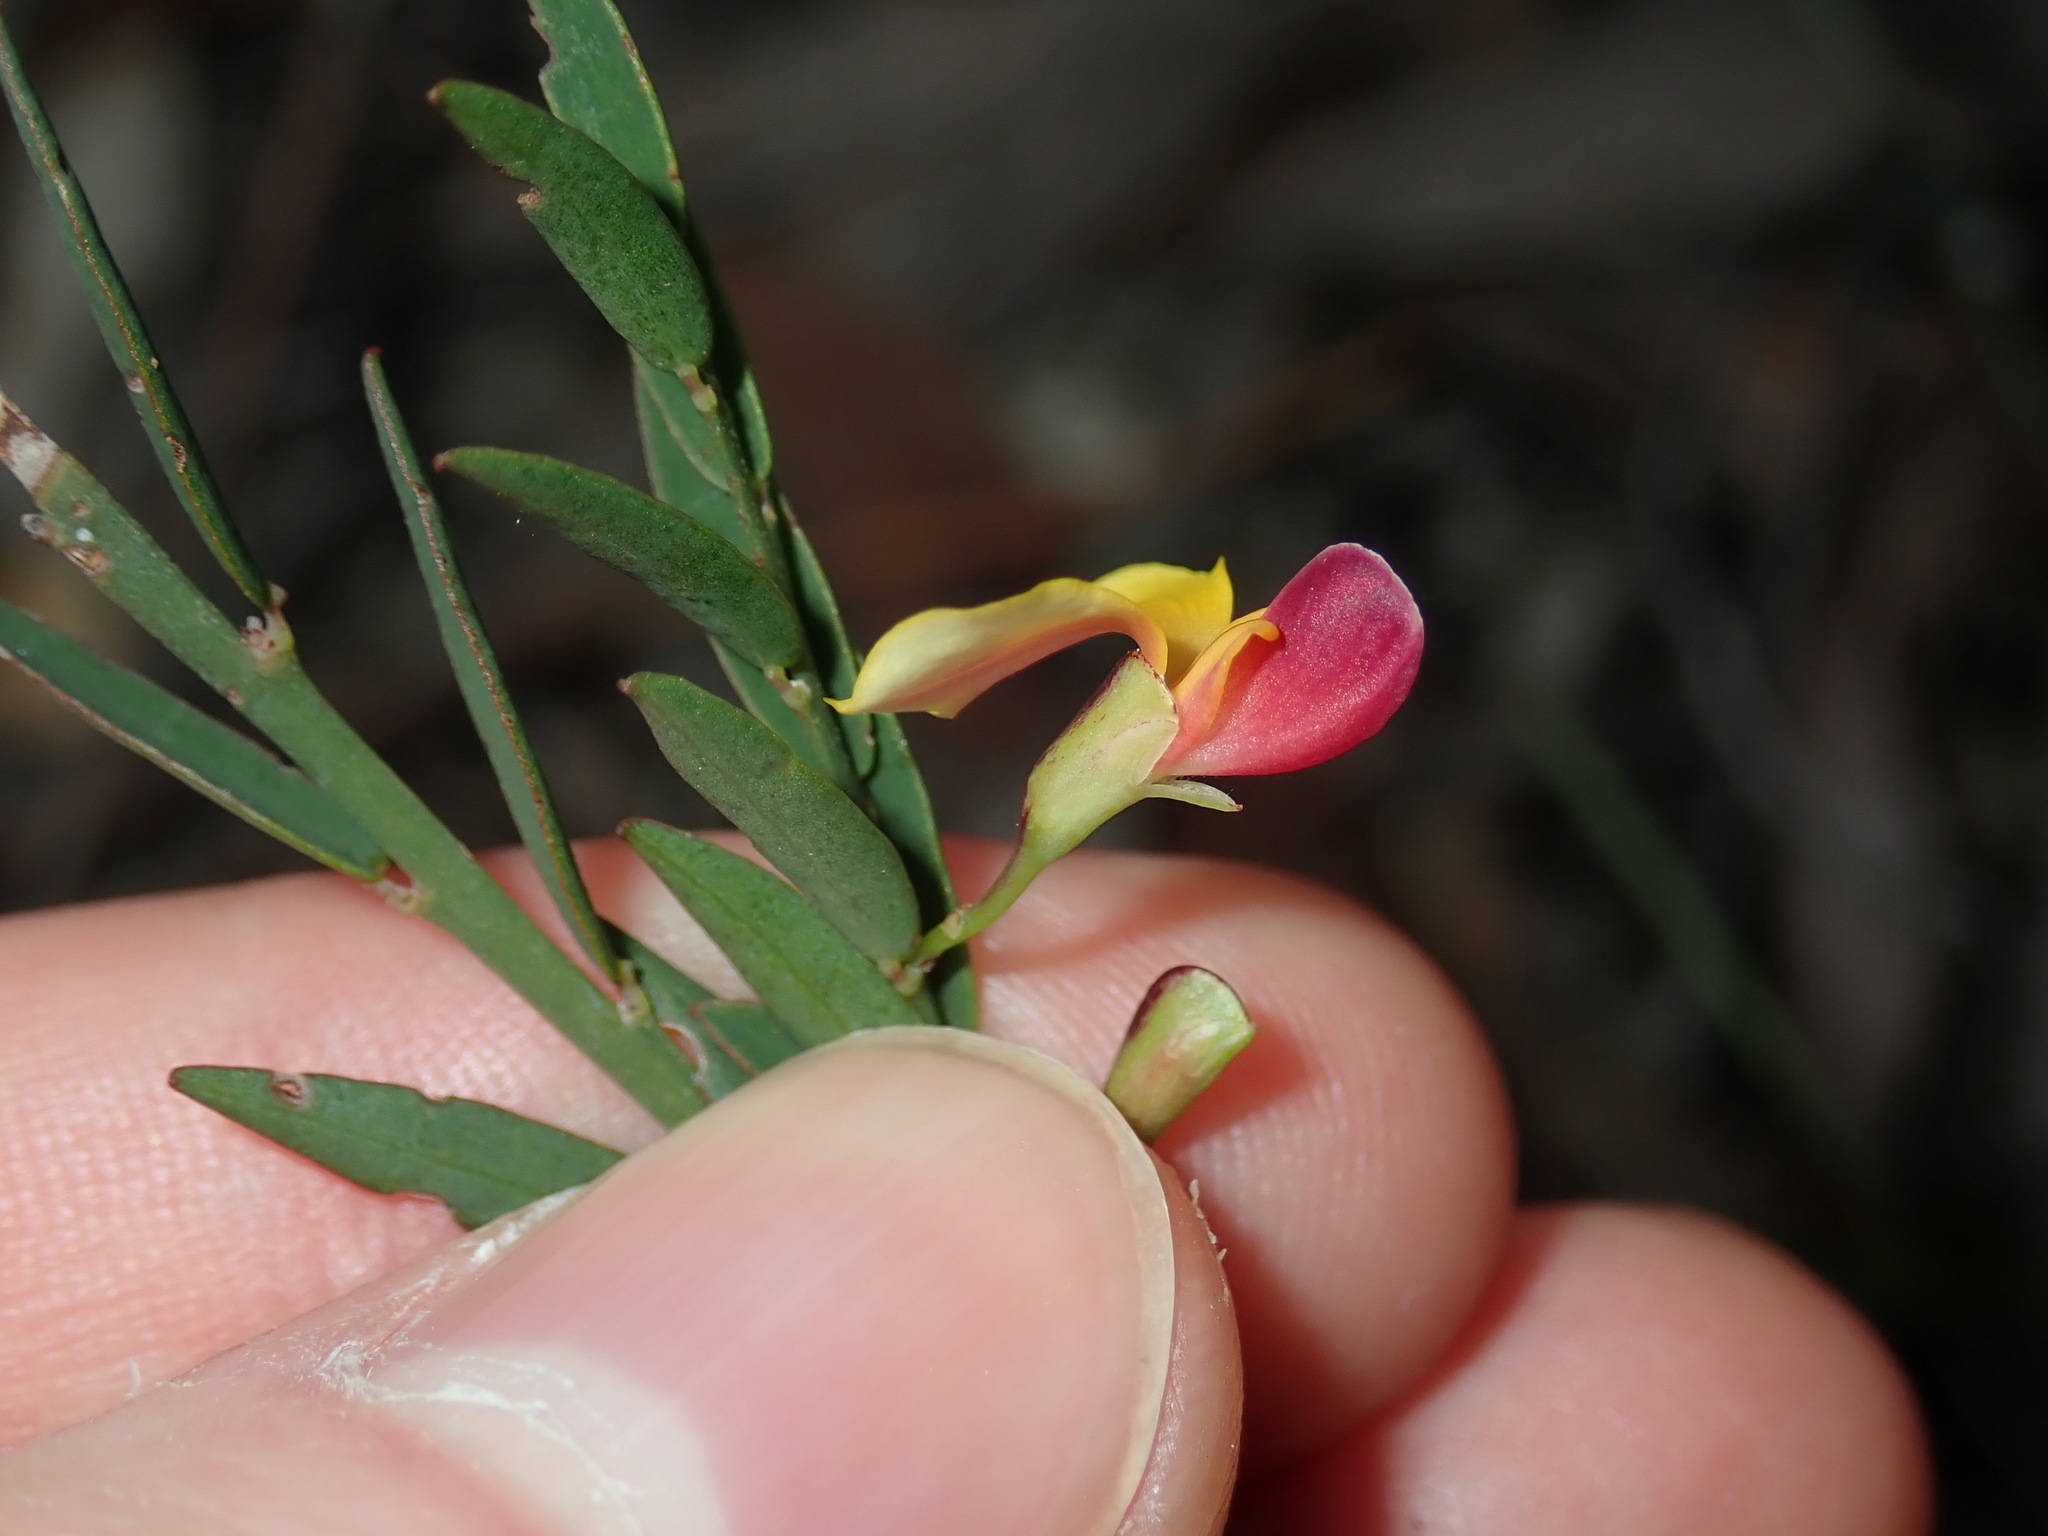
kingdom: Plantae
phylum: Tracheophyta
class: Magnoliopsida
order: Fabales
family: Fabaceae
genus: Bossiaea
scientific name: Bossiaea heterophylla
